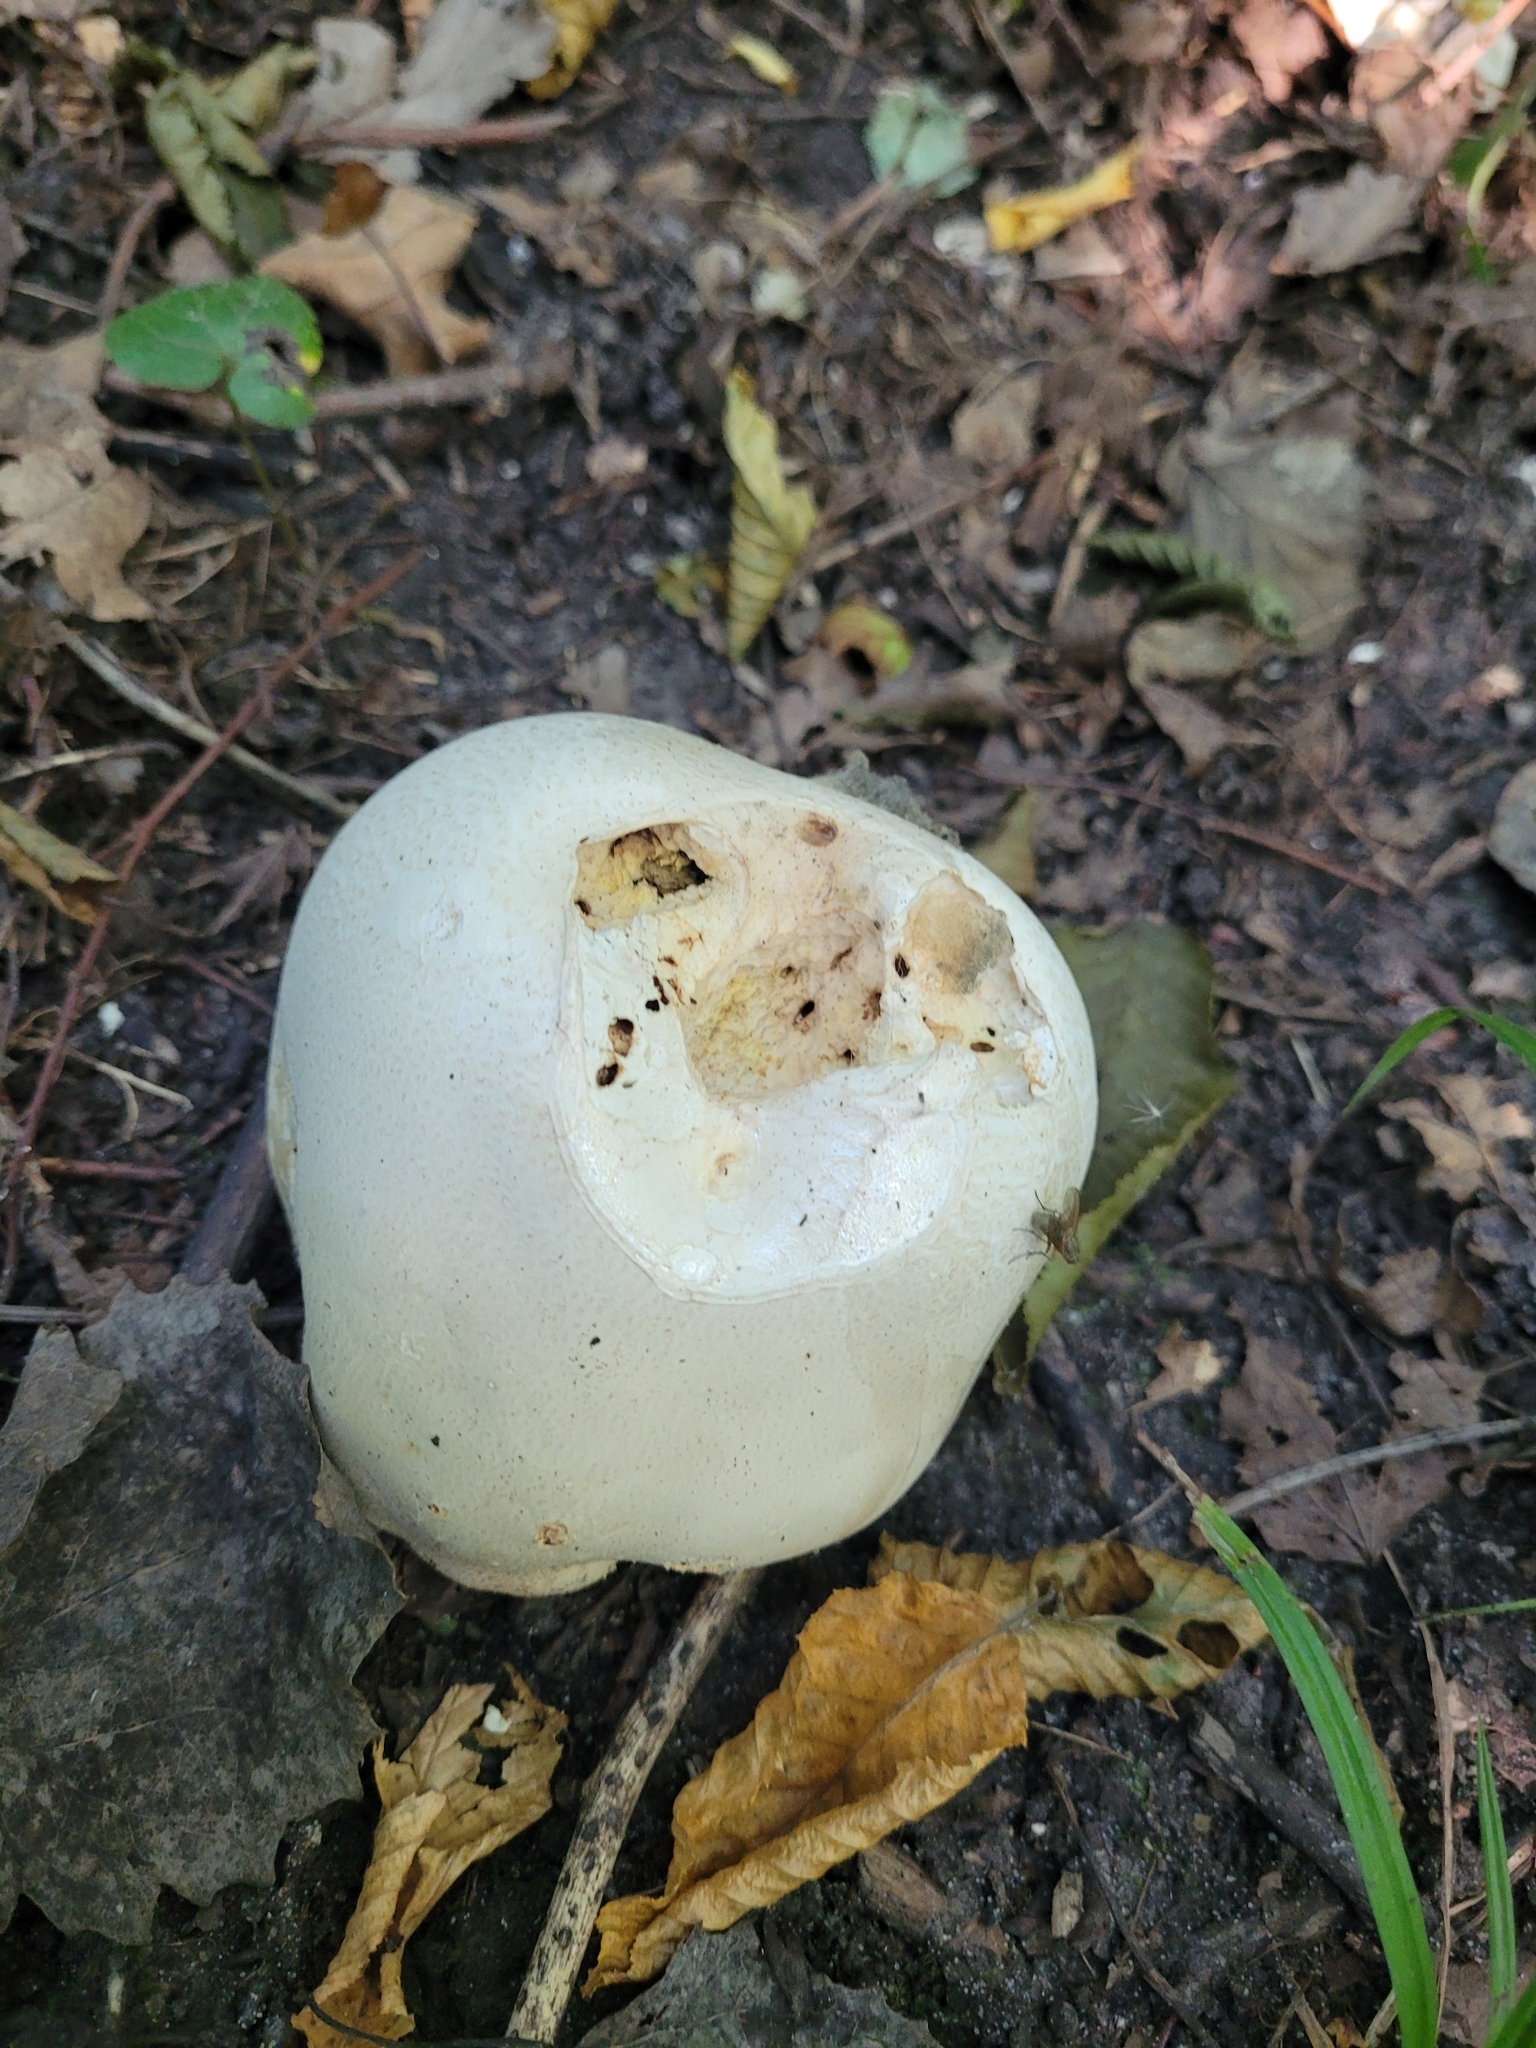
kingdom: Fungi
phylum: Basidiomycota
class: Agaricomycetes
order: Agaricales
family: Lycoperdaceae
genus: Calvatia
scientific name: Calvatia gigantea
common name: Giant puffball
